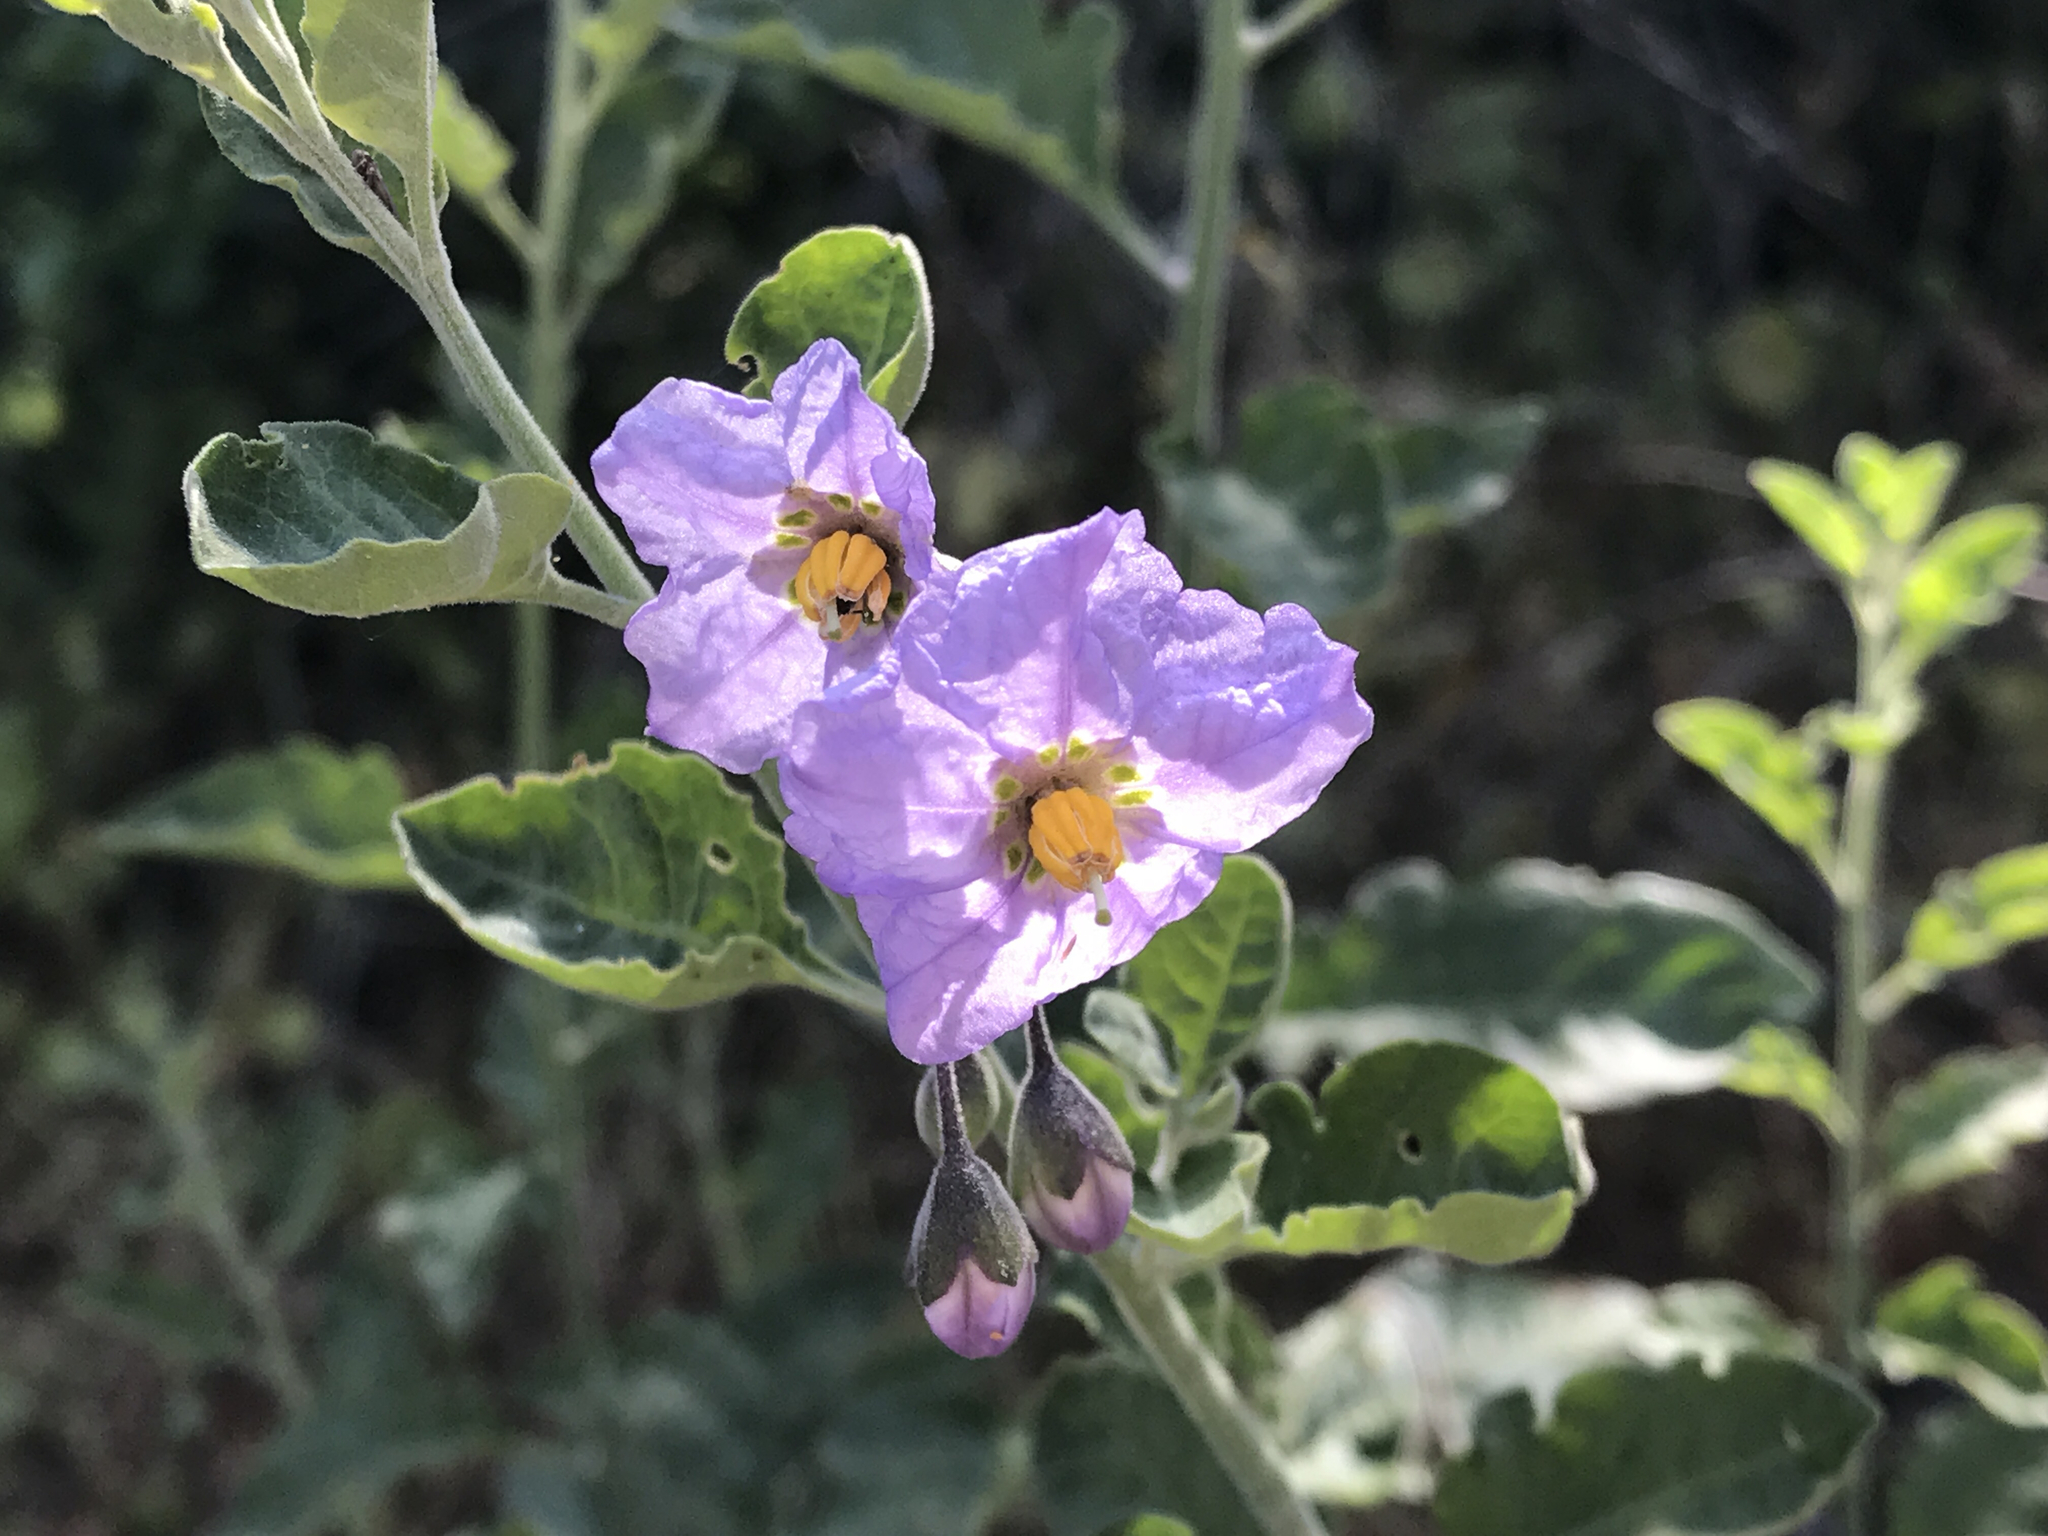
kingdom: Plantae
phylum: Tracheophyta
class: Magnoliopsida
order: Solanales
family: Solanaceae
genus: Solanum
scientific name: Solanum umbelliferum
